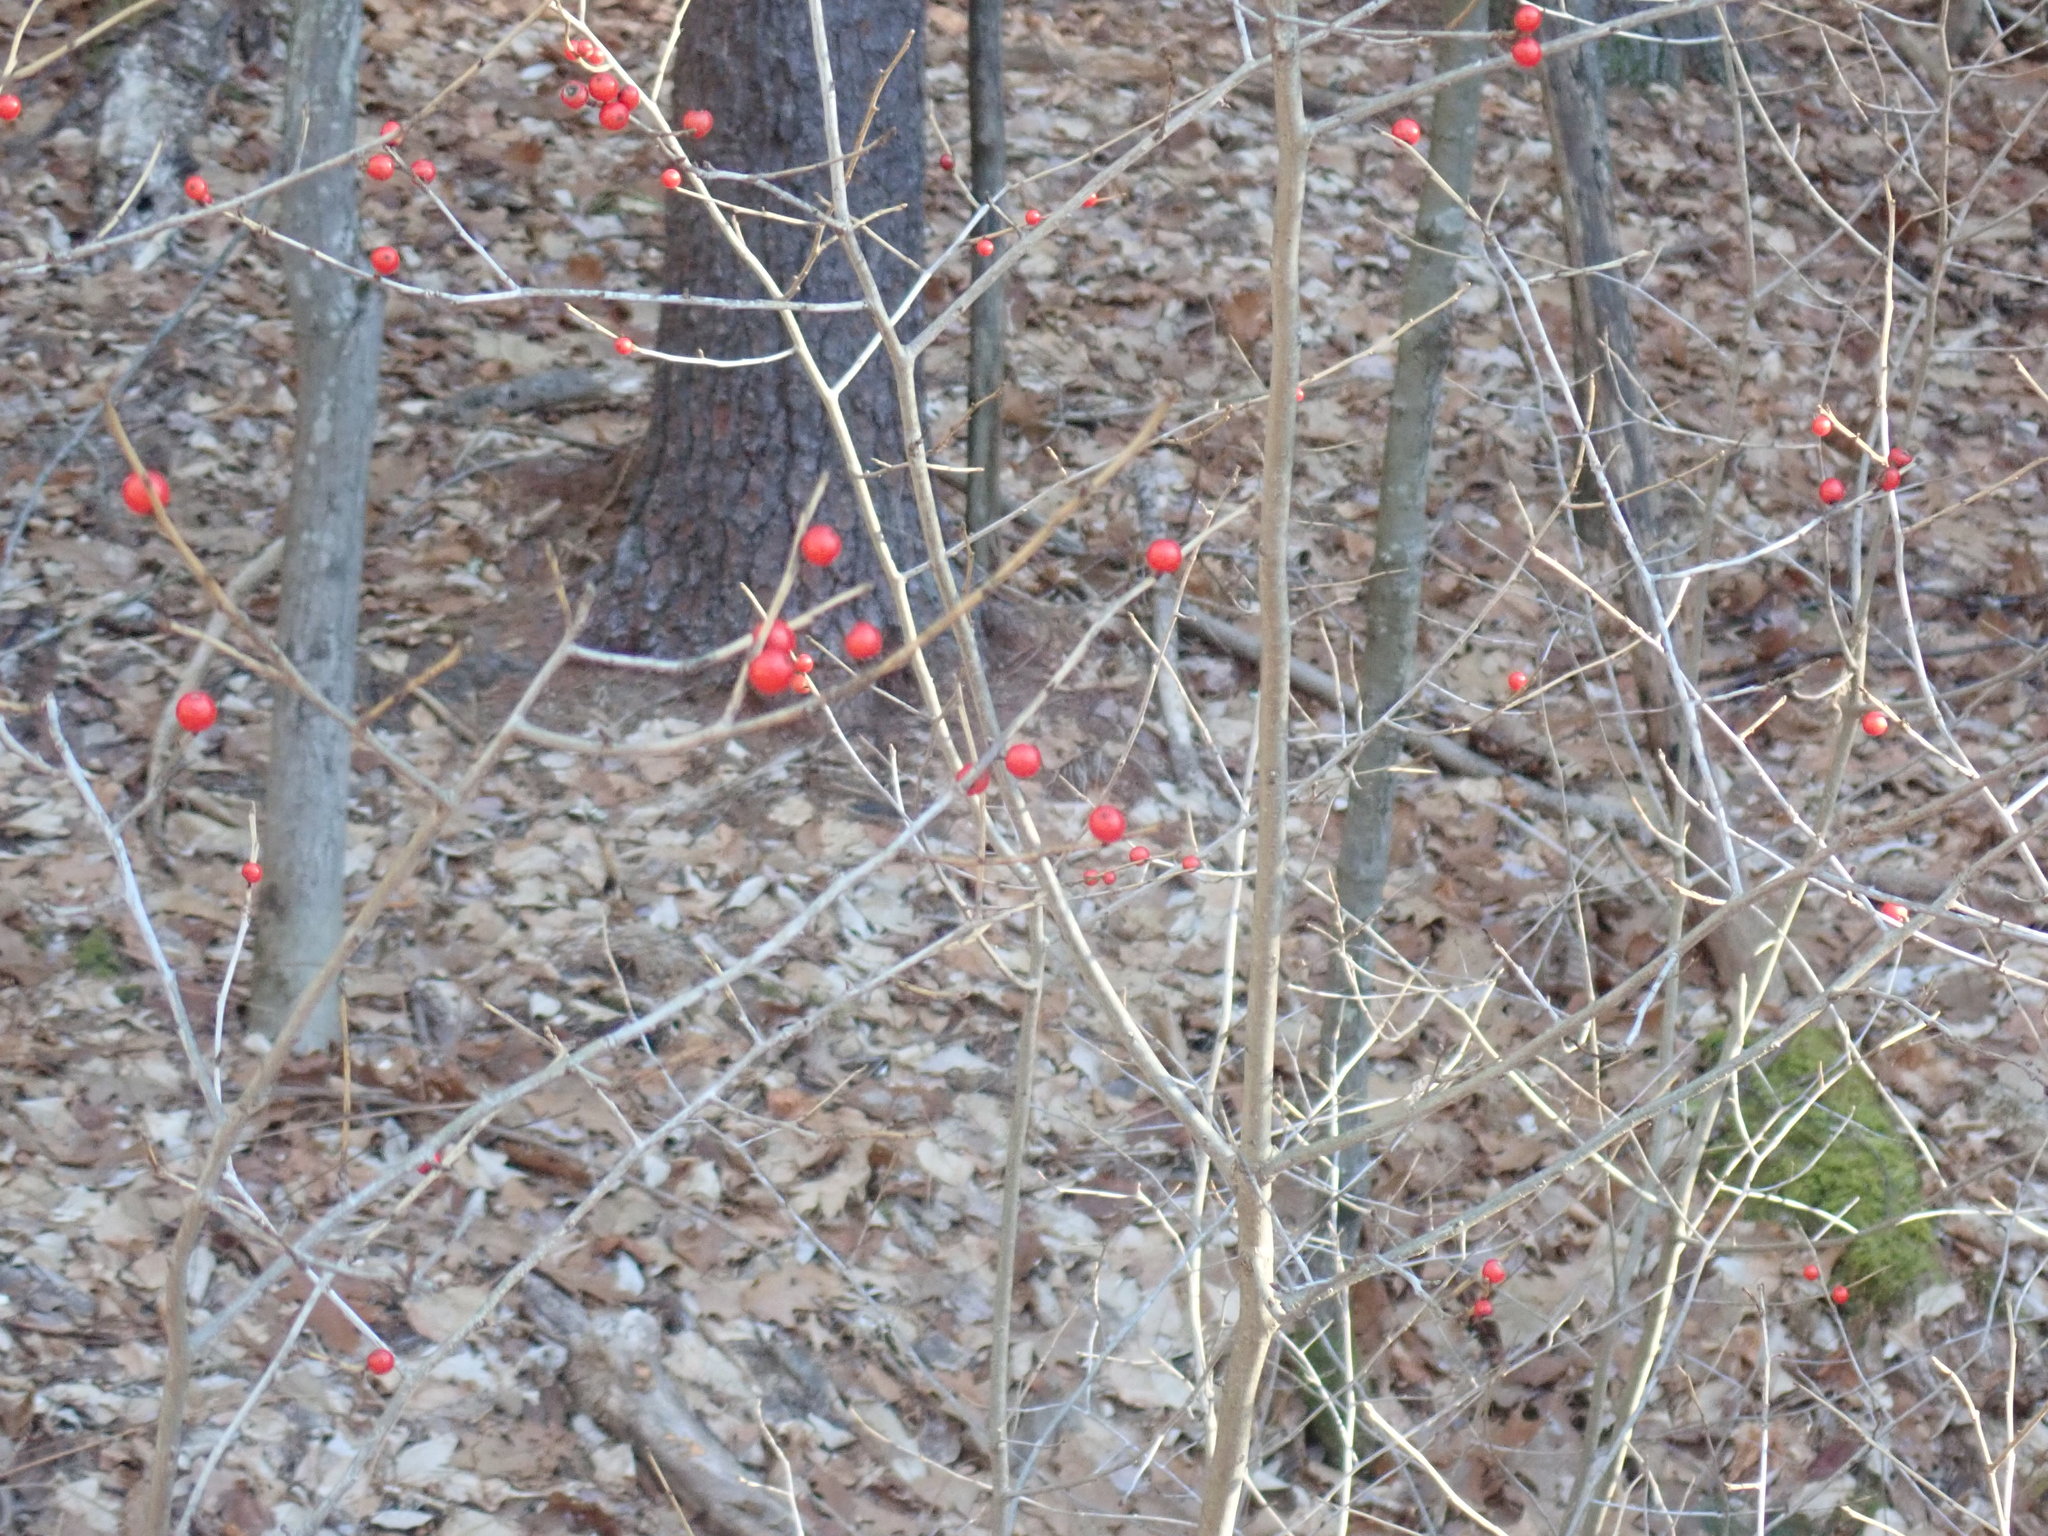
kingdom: Plantae
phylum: Tracheophyta
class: Magnoliopsida
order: Aquifoliales
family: Aquifoliaceae
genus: Ilex
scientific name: Ilex verticillata
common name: Virginia winterberry
